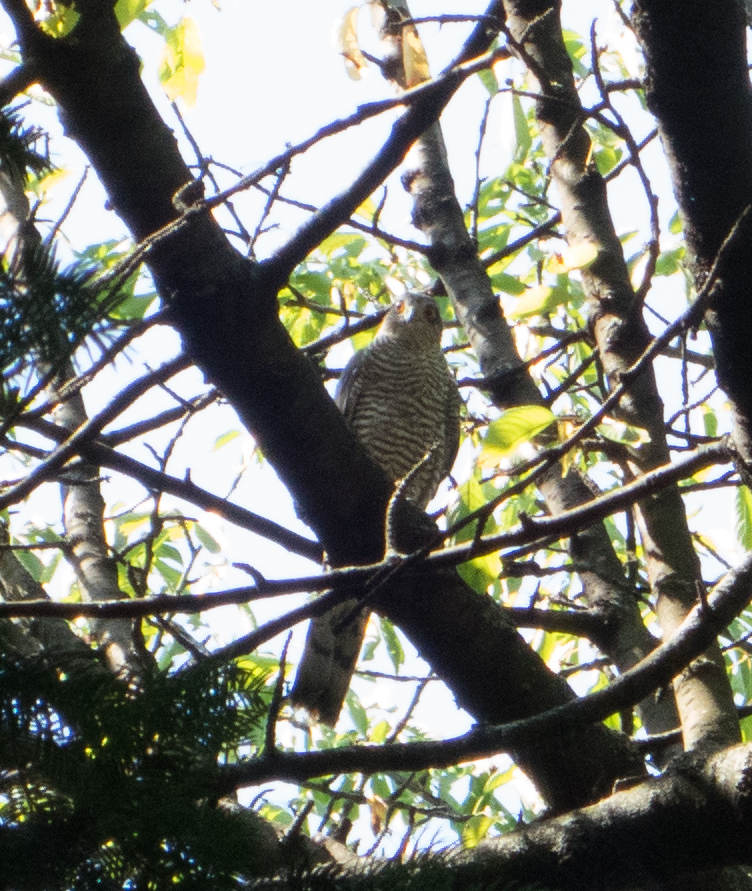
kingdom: Animalia
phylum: Chordata
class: Aves
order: Accipitriformes
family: Accipitridae
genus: Accipiter
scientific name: Accipiter nisus
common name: Eurasian sparrowhawk
